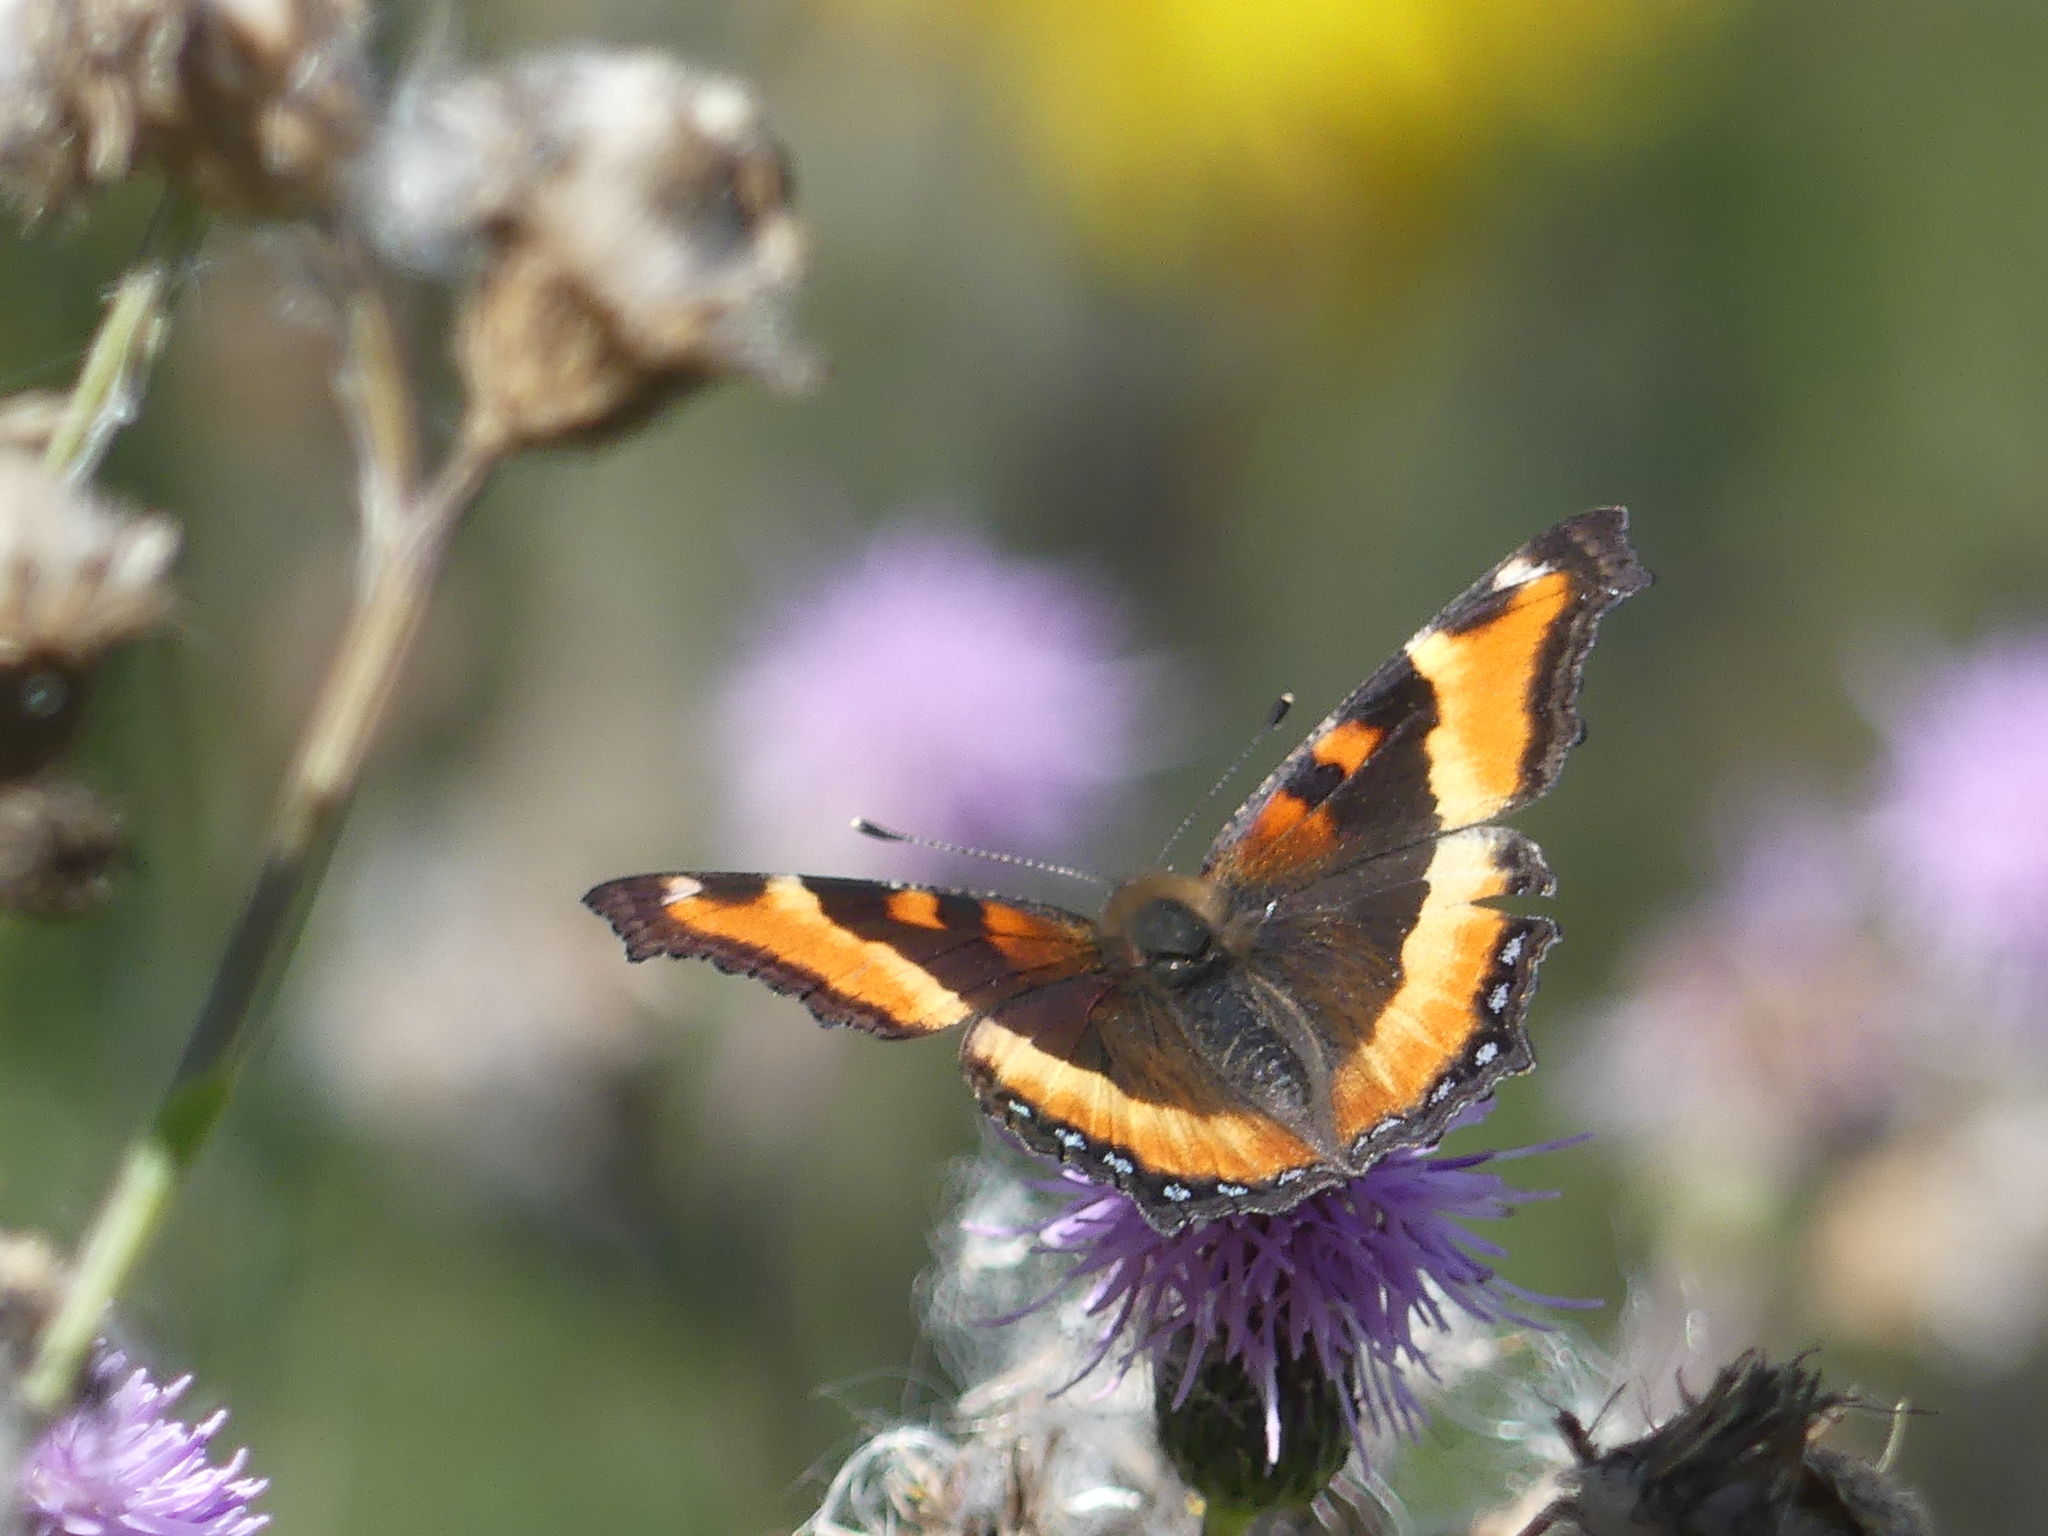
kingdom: Animalia
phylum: Arthropoda
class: Insecta
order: Lepidoptera
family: Nymphalidae
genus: Aglais
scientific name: Aglais milberti
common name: Milbert's tortoiseshell
